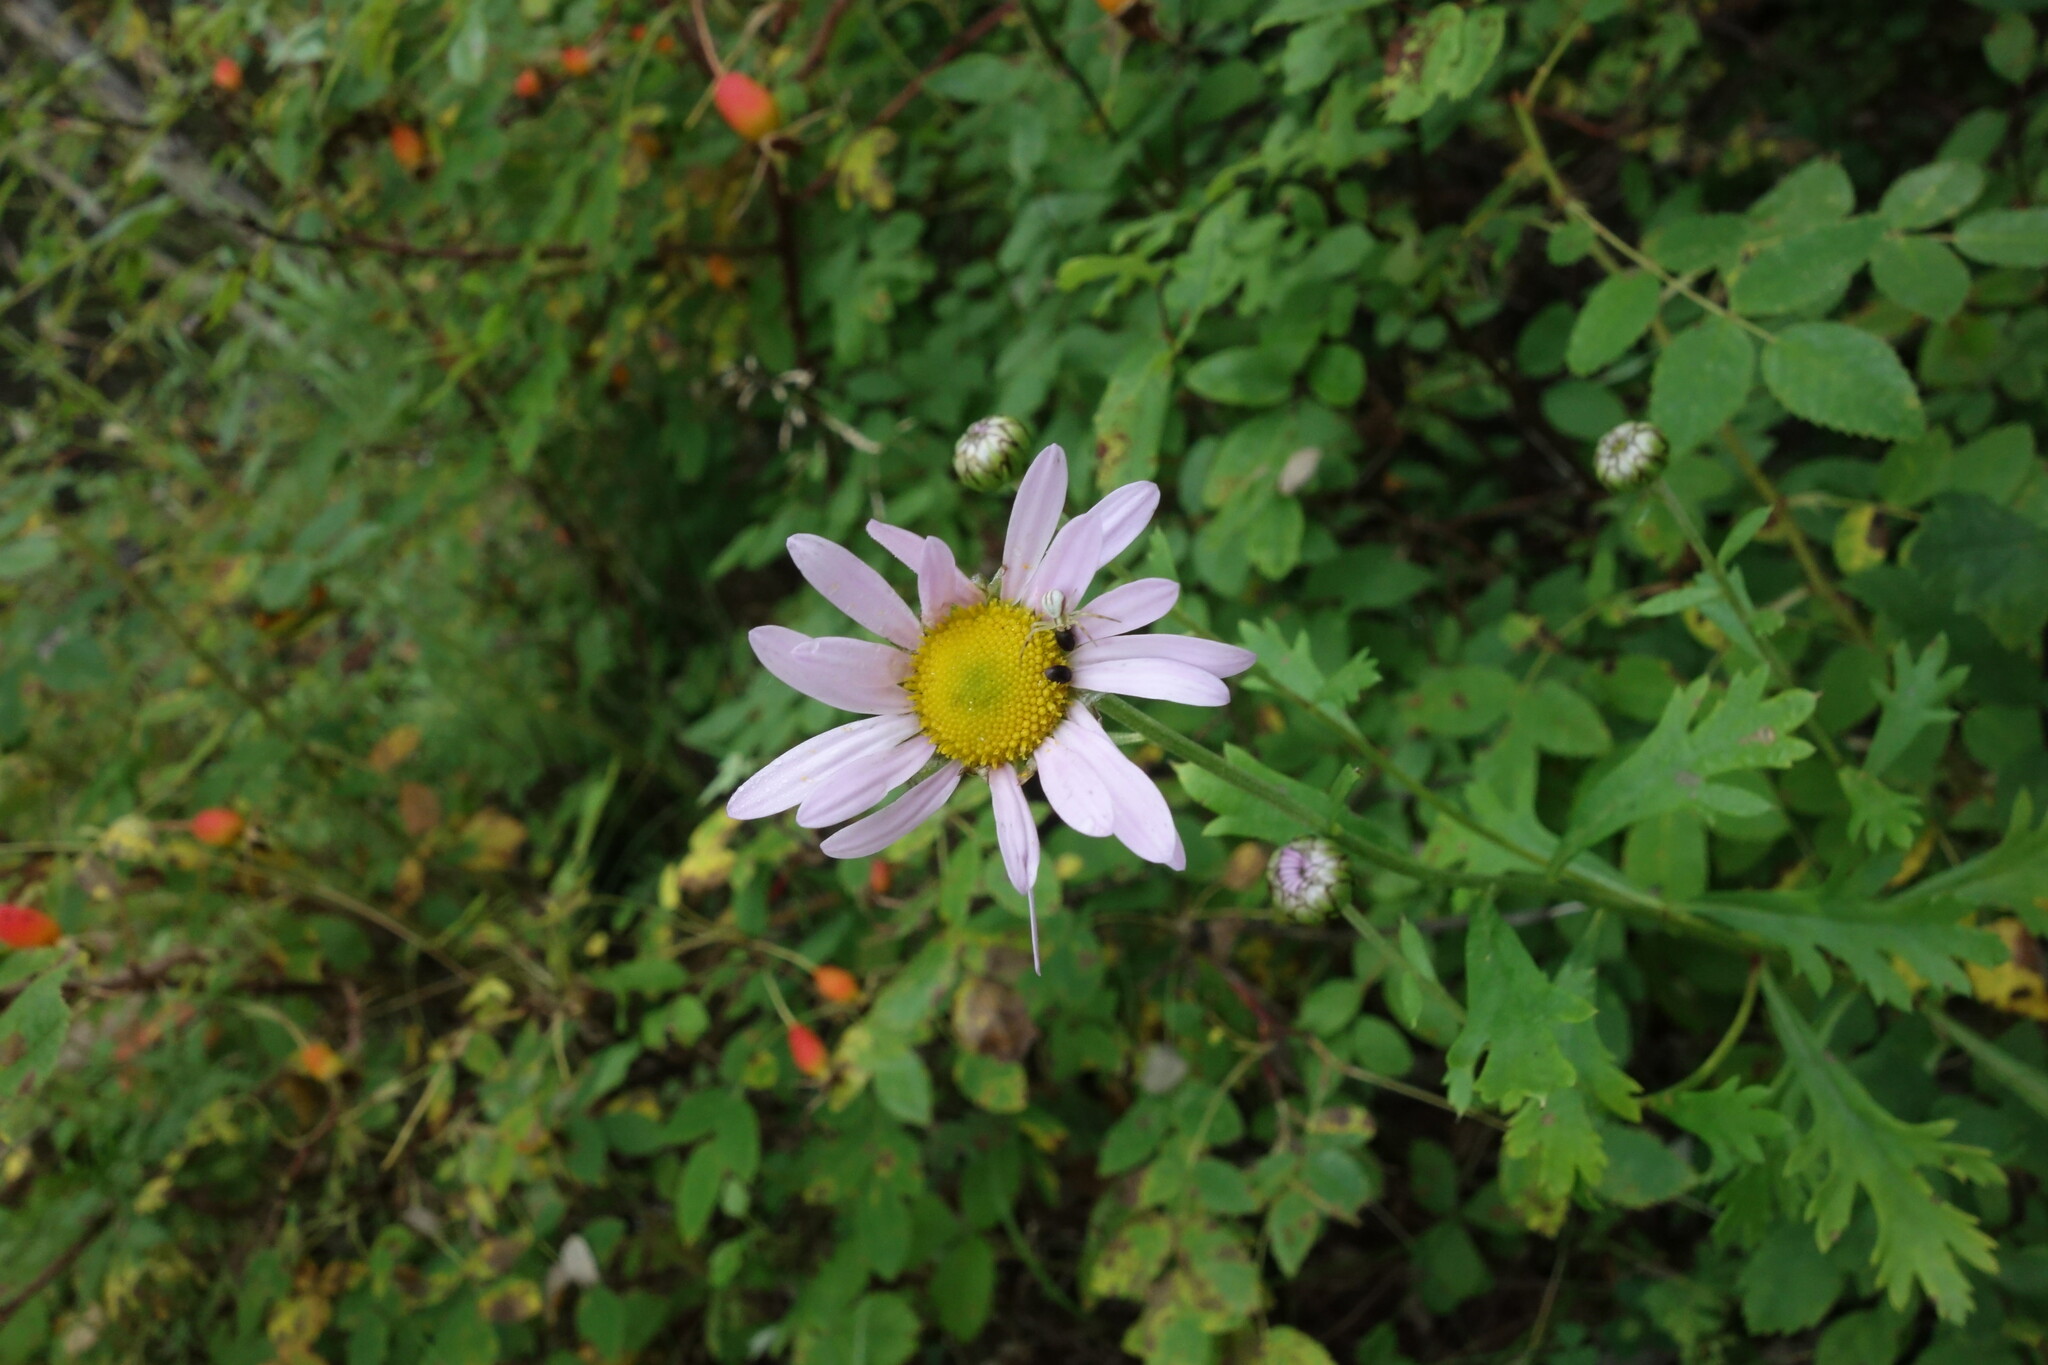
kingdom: Plantae
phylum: Tracheophyta
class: Magnoliopsida
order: Asterales
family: Asteraceae
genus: Chrysanthemum
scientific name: Chrysanthemum zawadzkii
